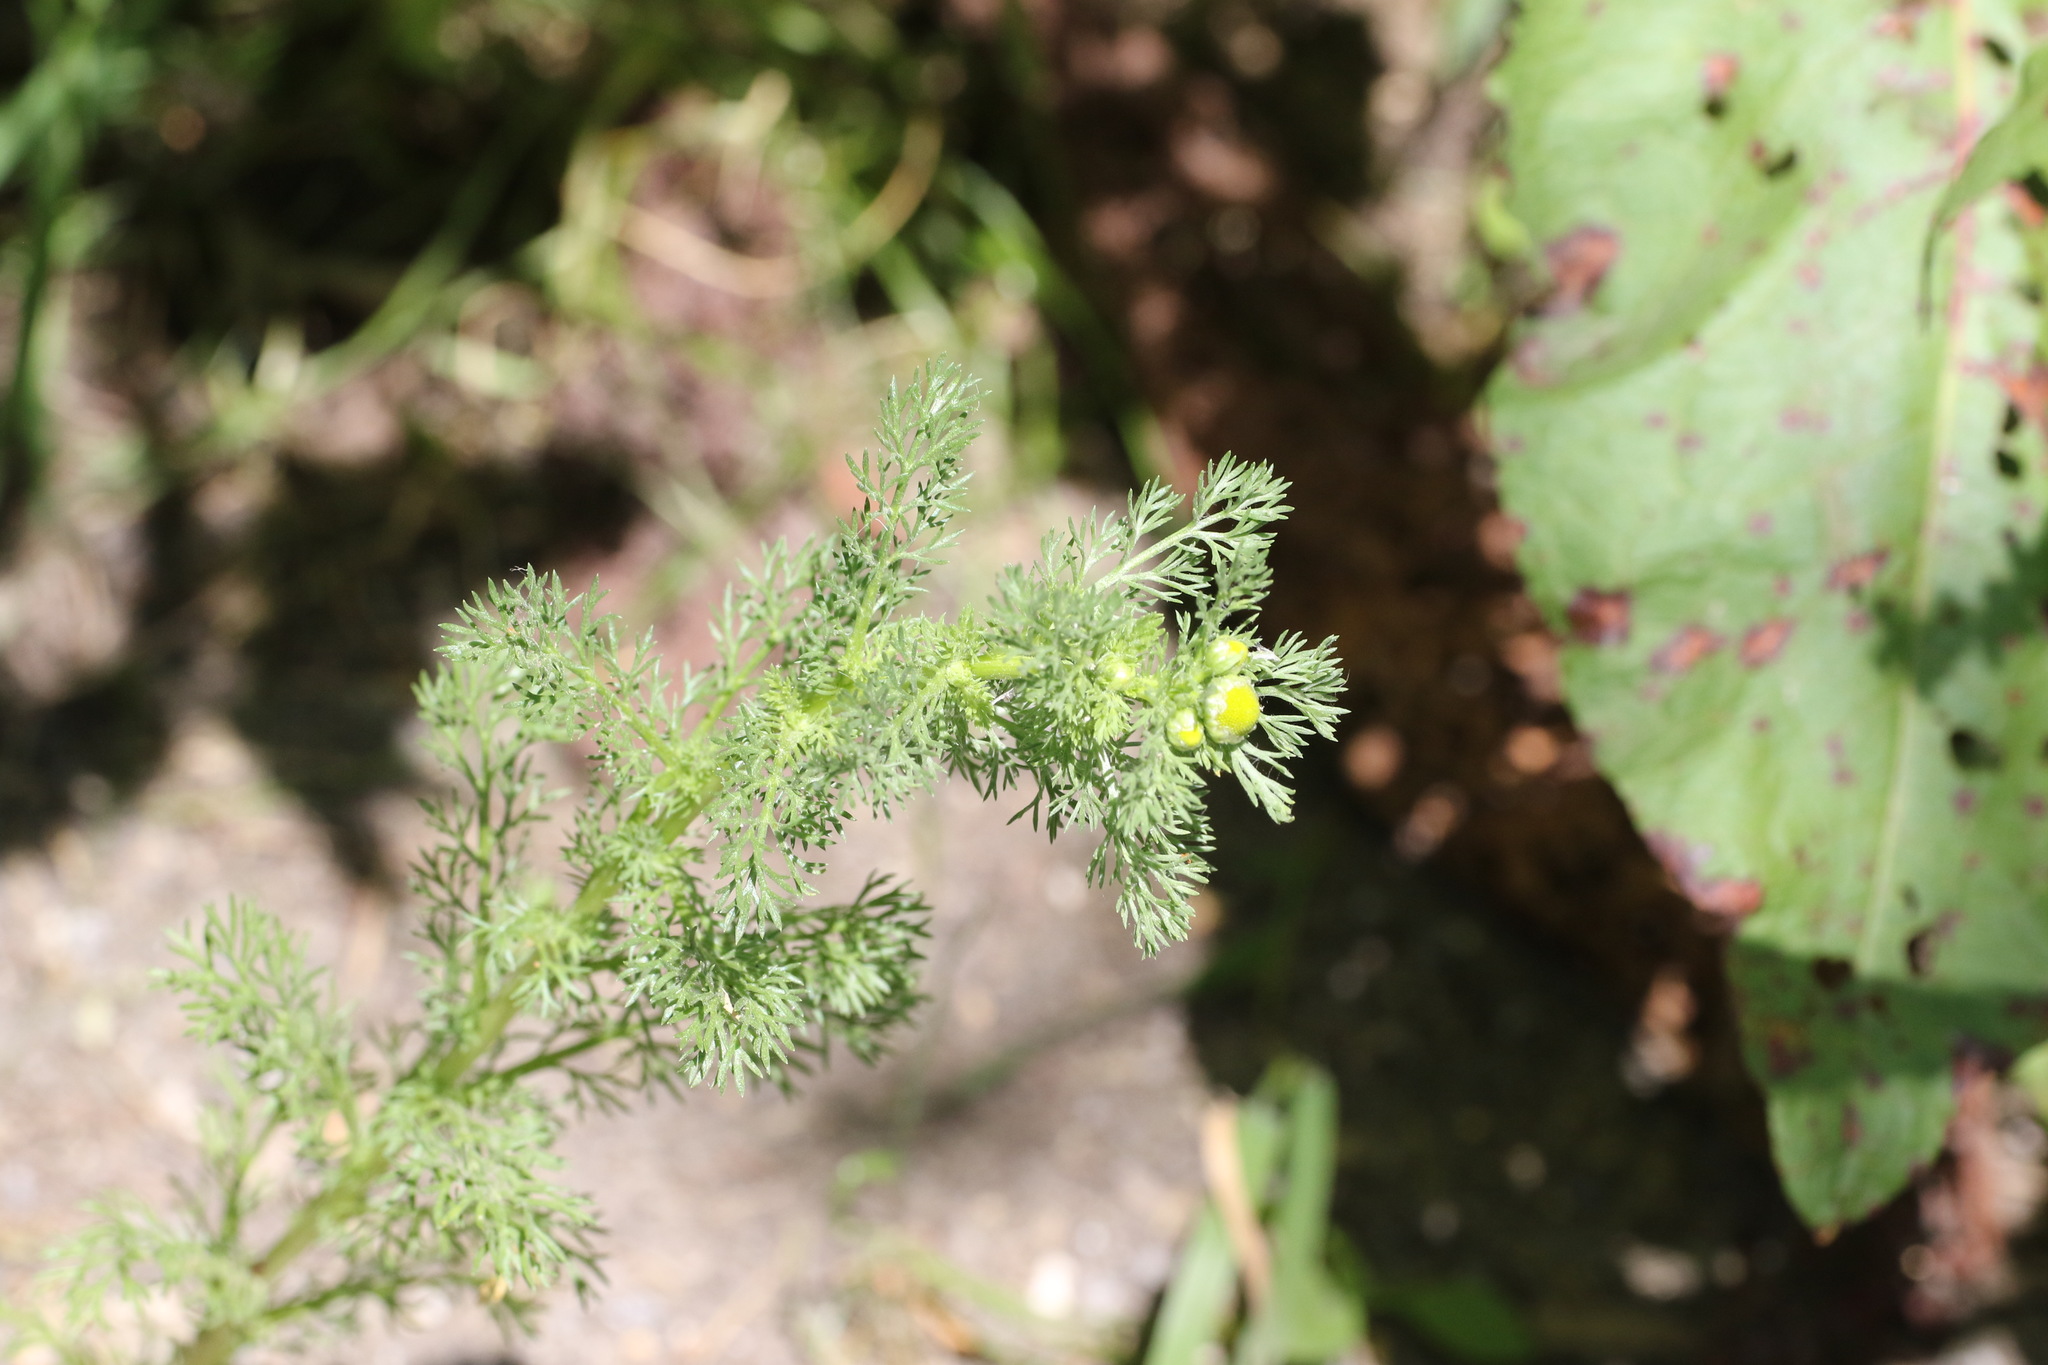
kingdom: Plantae
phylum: Tracheophyta
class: Magnoliopsida
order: Asterales
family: Asteraceae
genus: Matricaria
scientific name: Matricaria discoidea
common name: Disc mayweed
